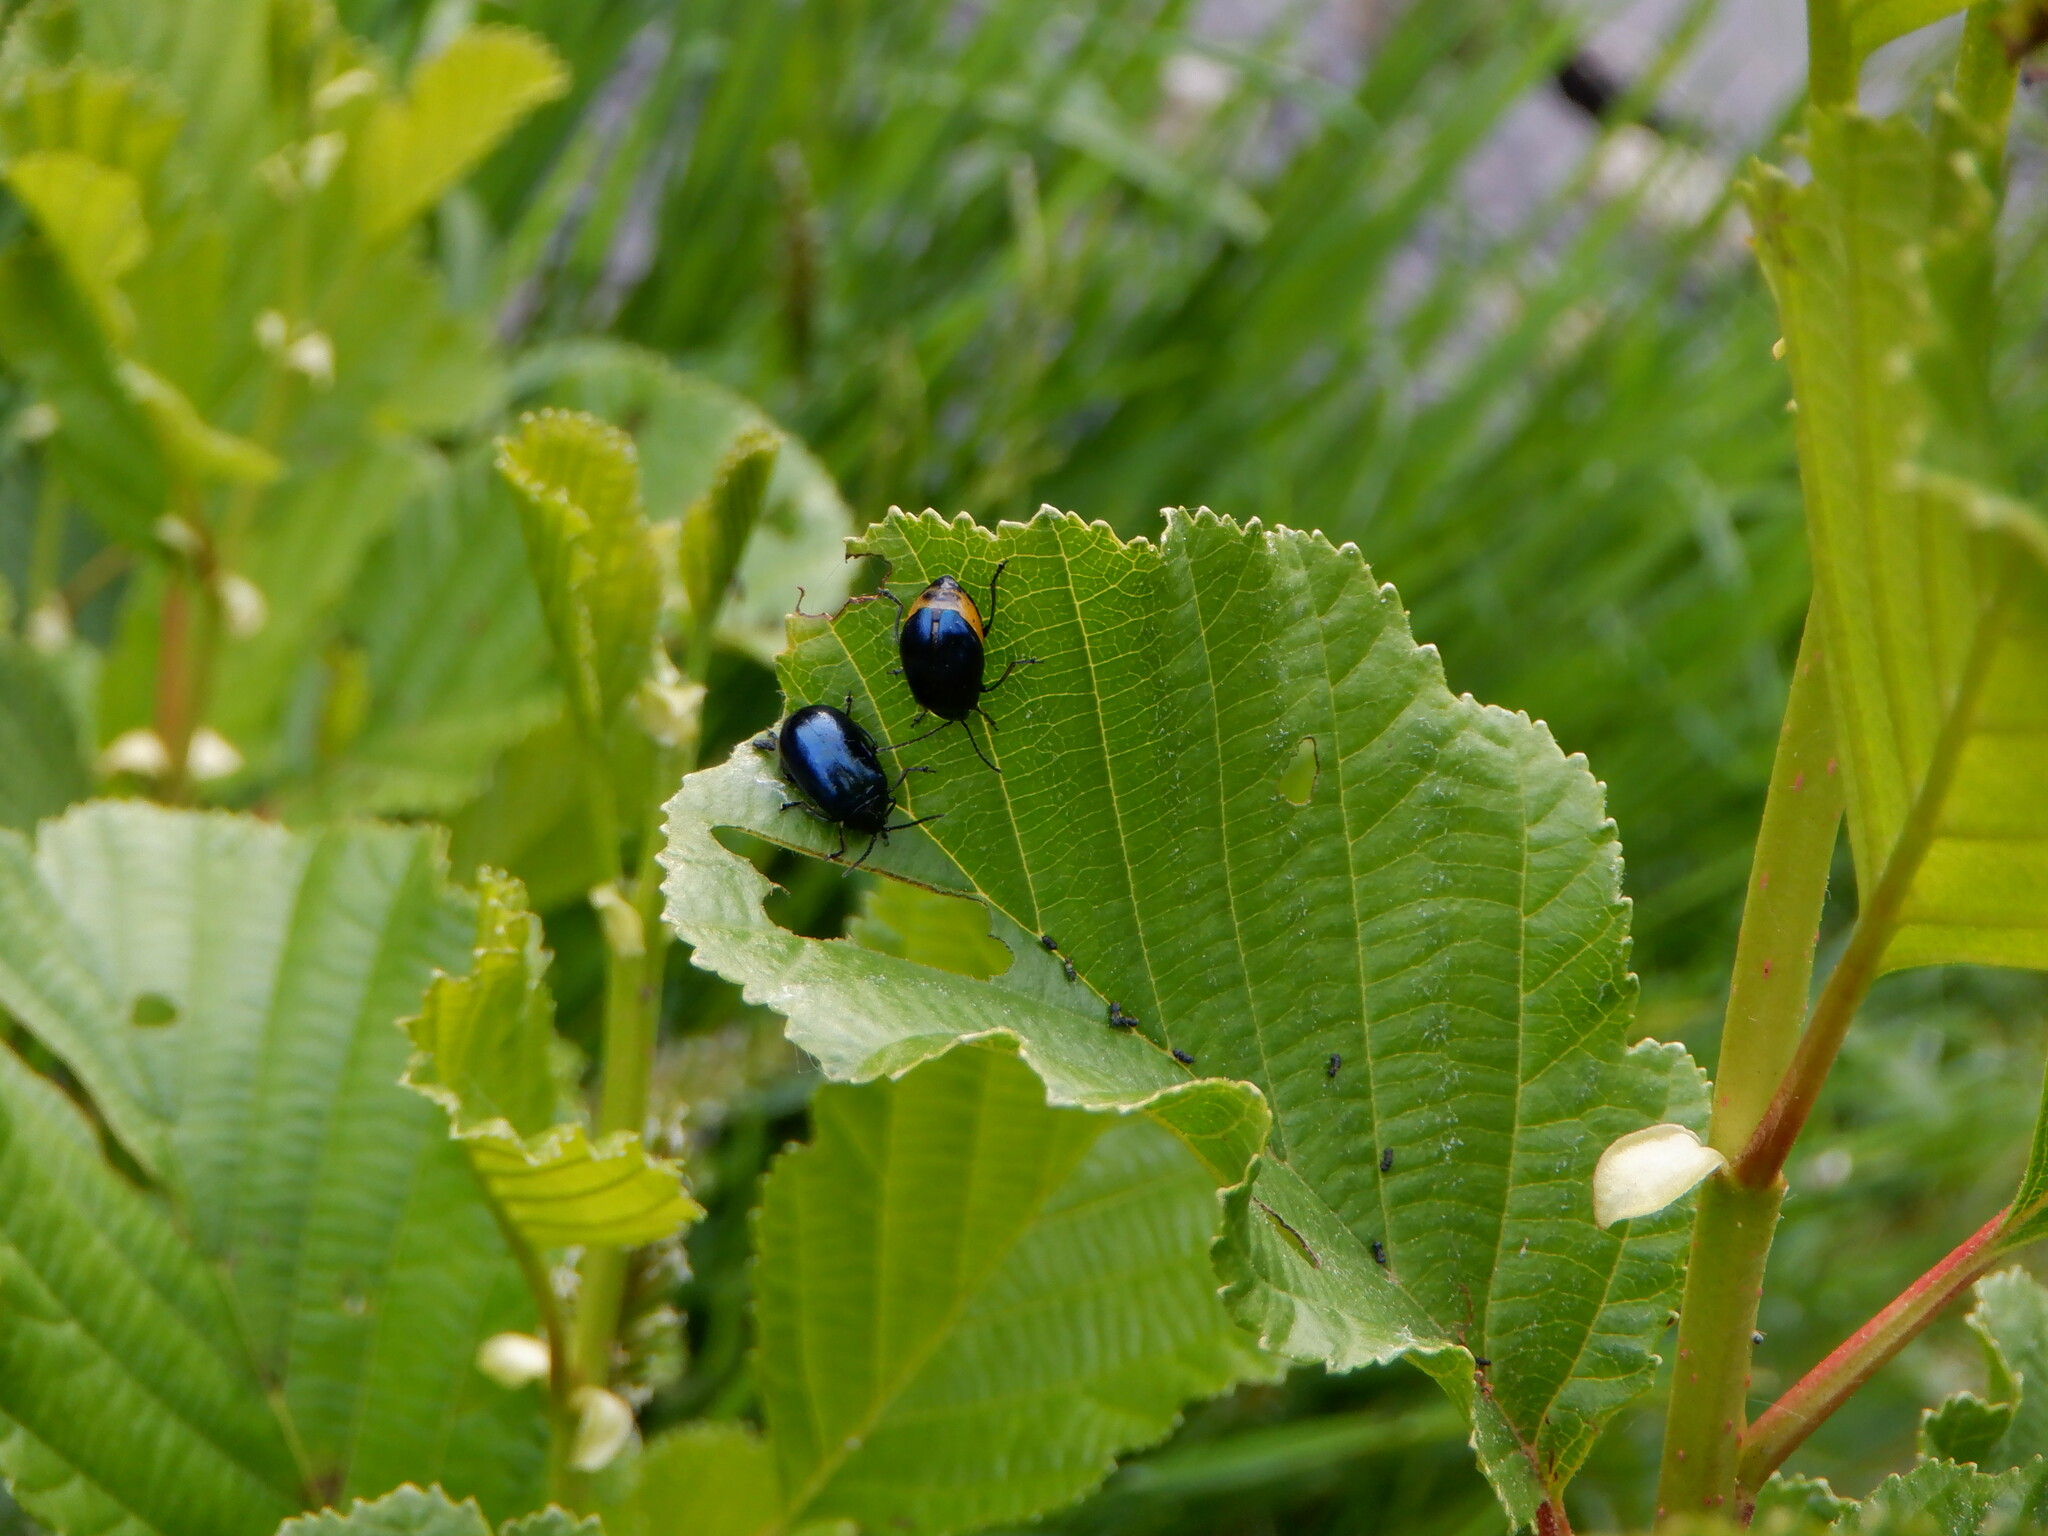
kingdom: Animalia
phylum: Arthropoda
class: Insecta
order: Coleoptera
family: Chrysomelidae
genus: Agelastica
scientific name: Agelastica alni
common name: Alder leaf beetle
